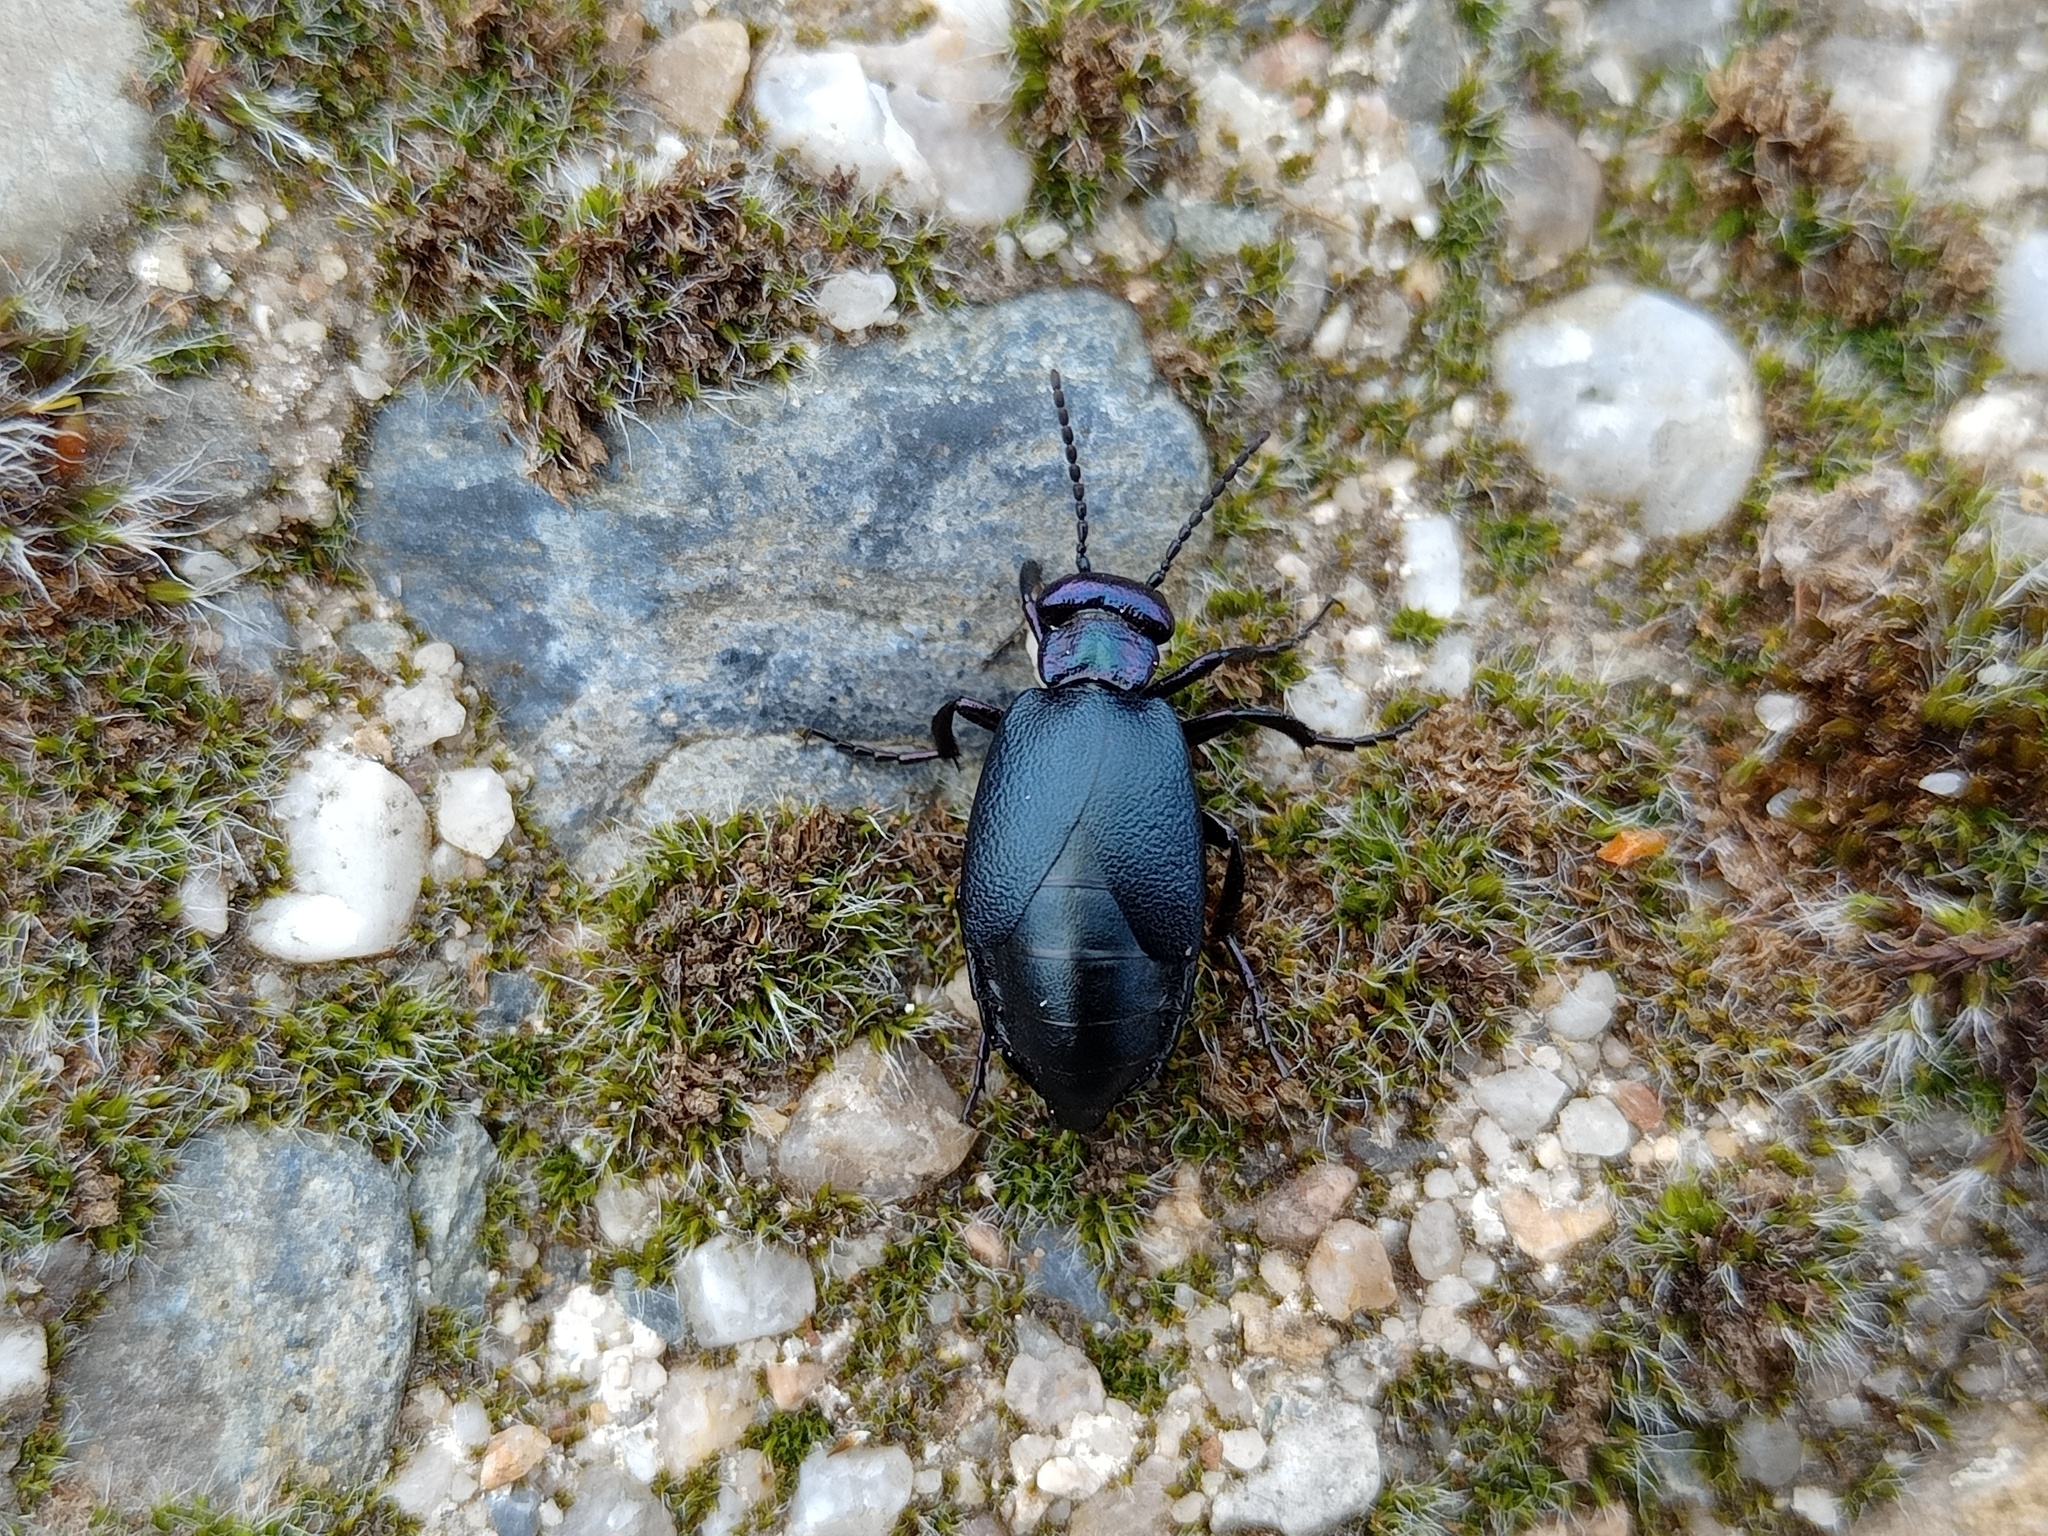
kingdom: Animalia
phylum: Arthropoda
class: Insecta
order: Coleoptera
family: Meloidae
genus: Meloe
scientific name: Meloe decorus
